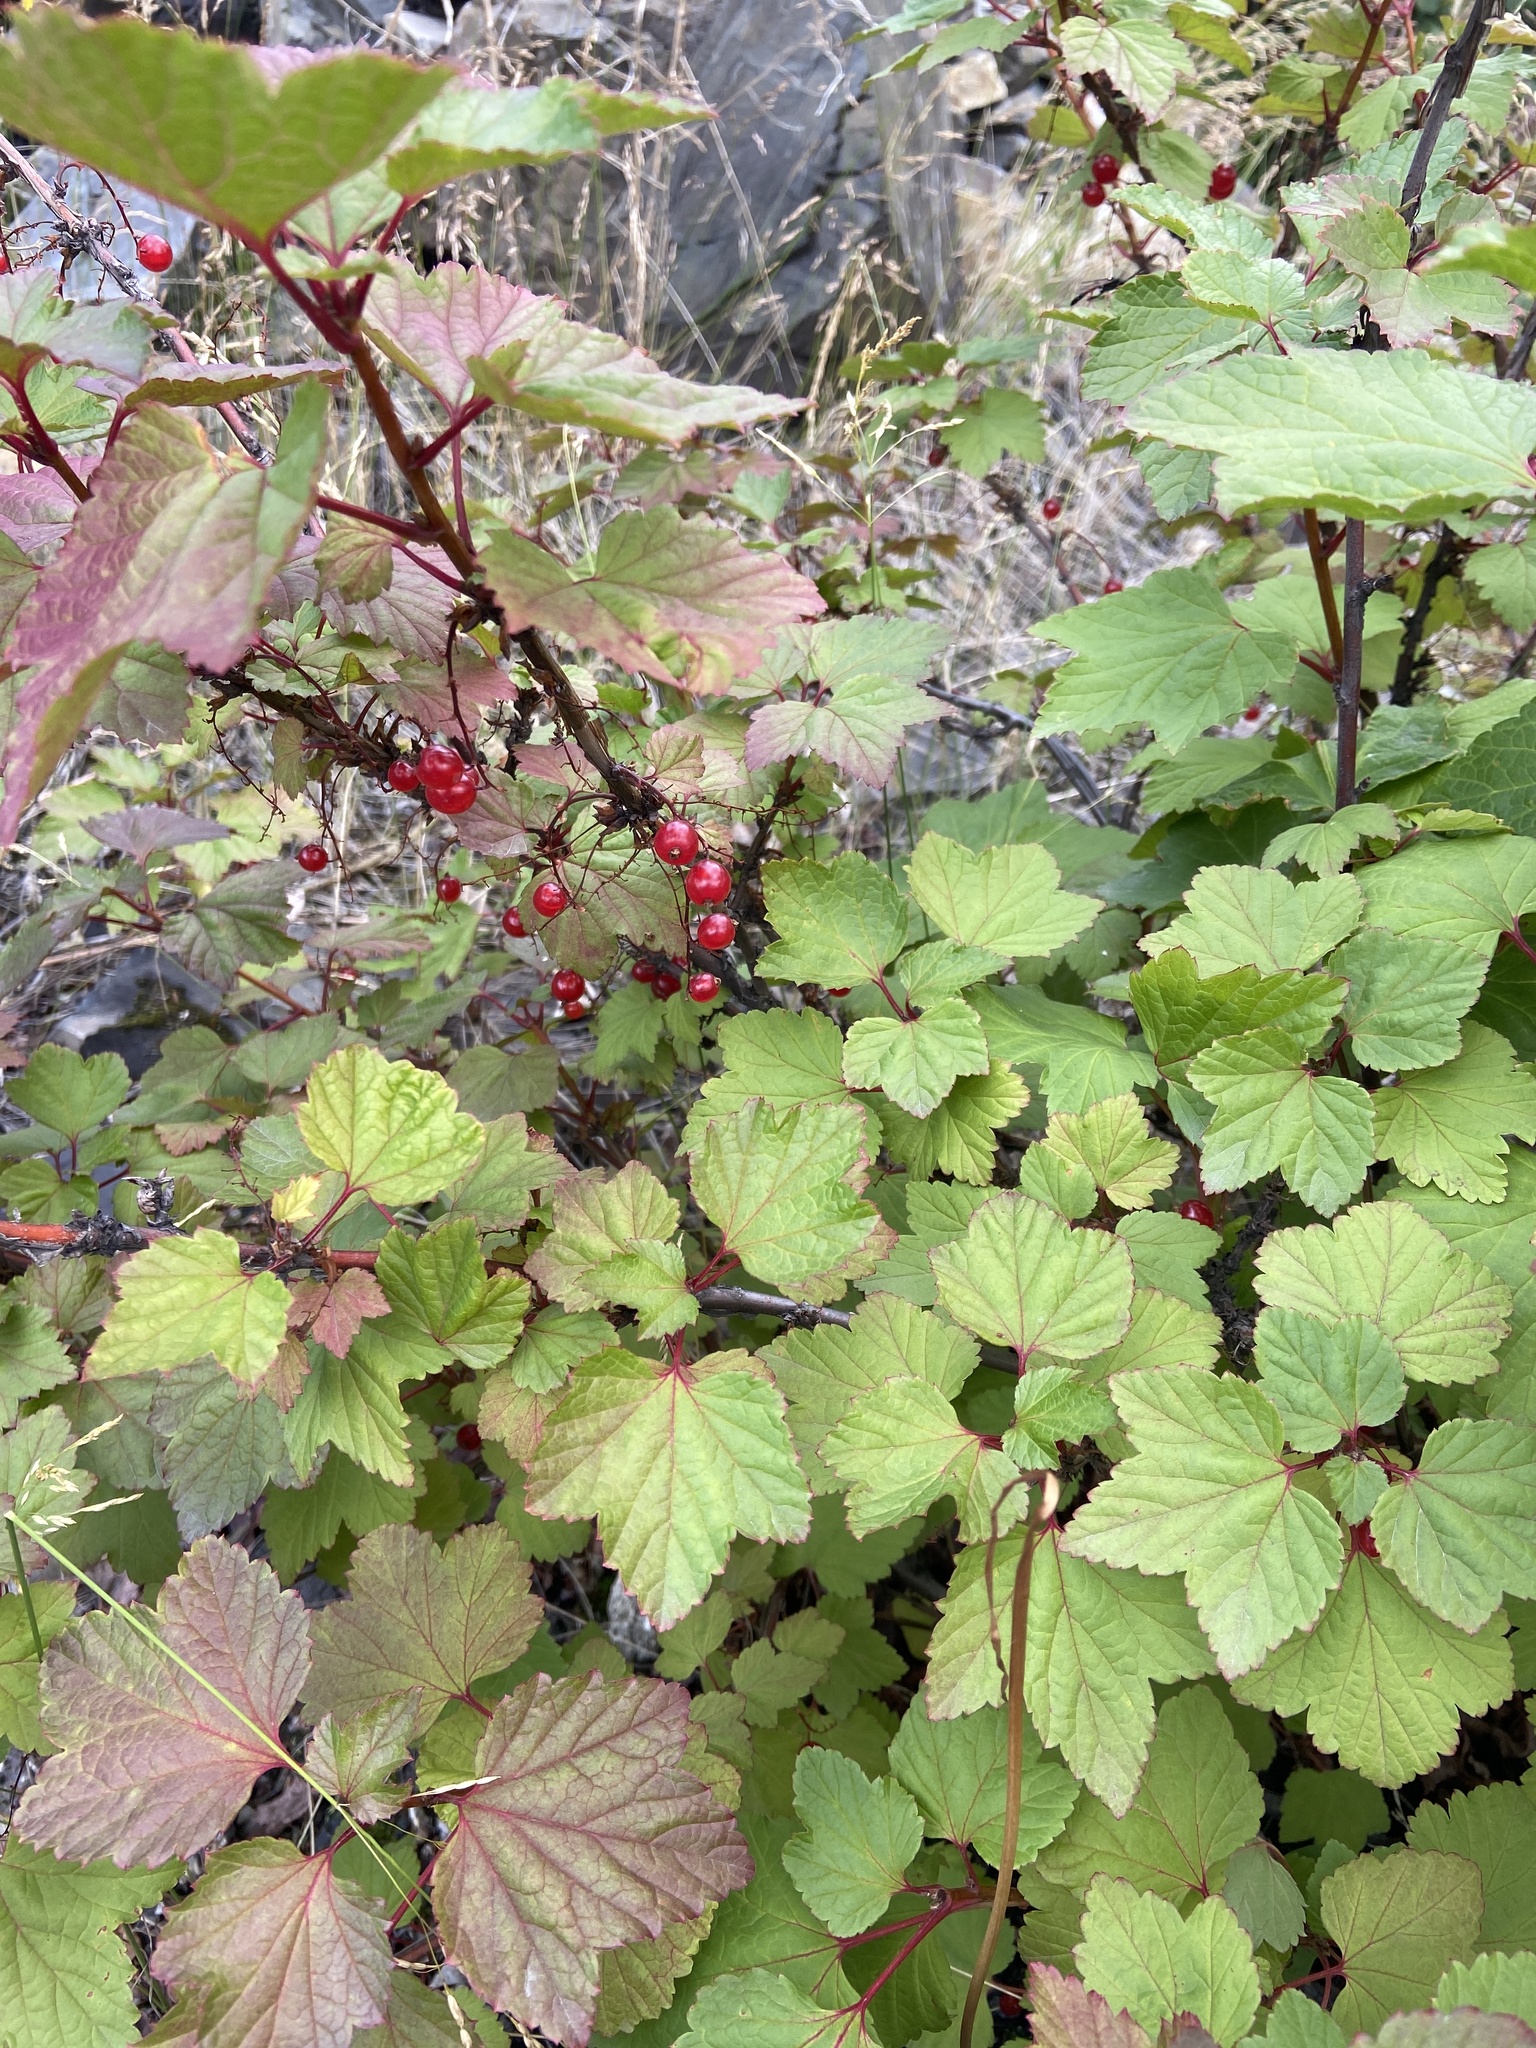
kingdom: Plantae
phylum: Tracheophyta
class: Magnoliopsida
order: Saxifragales
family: Grossulariaceae
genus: Ribes
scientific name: Ribes triste
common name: Swamp red currant
